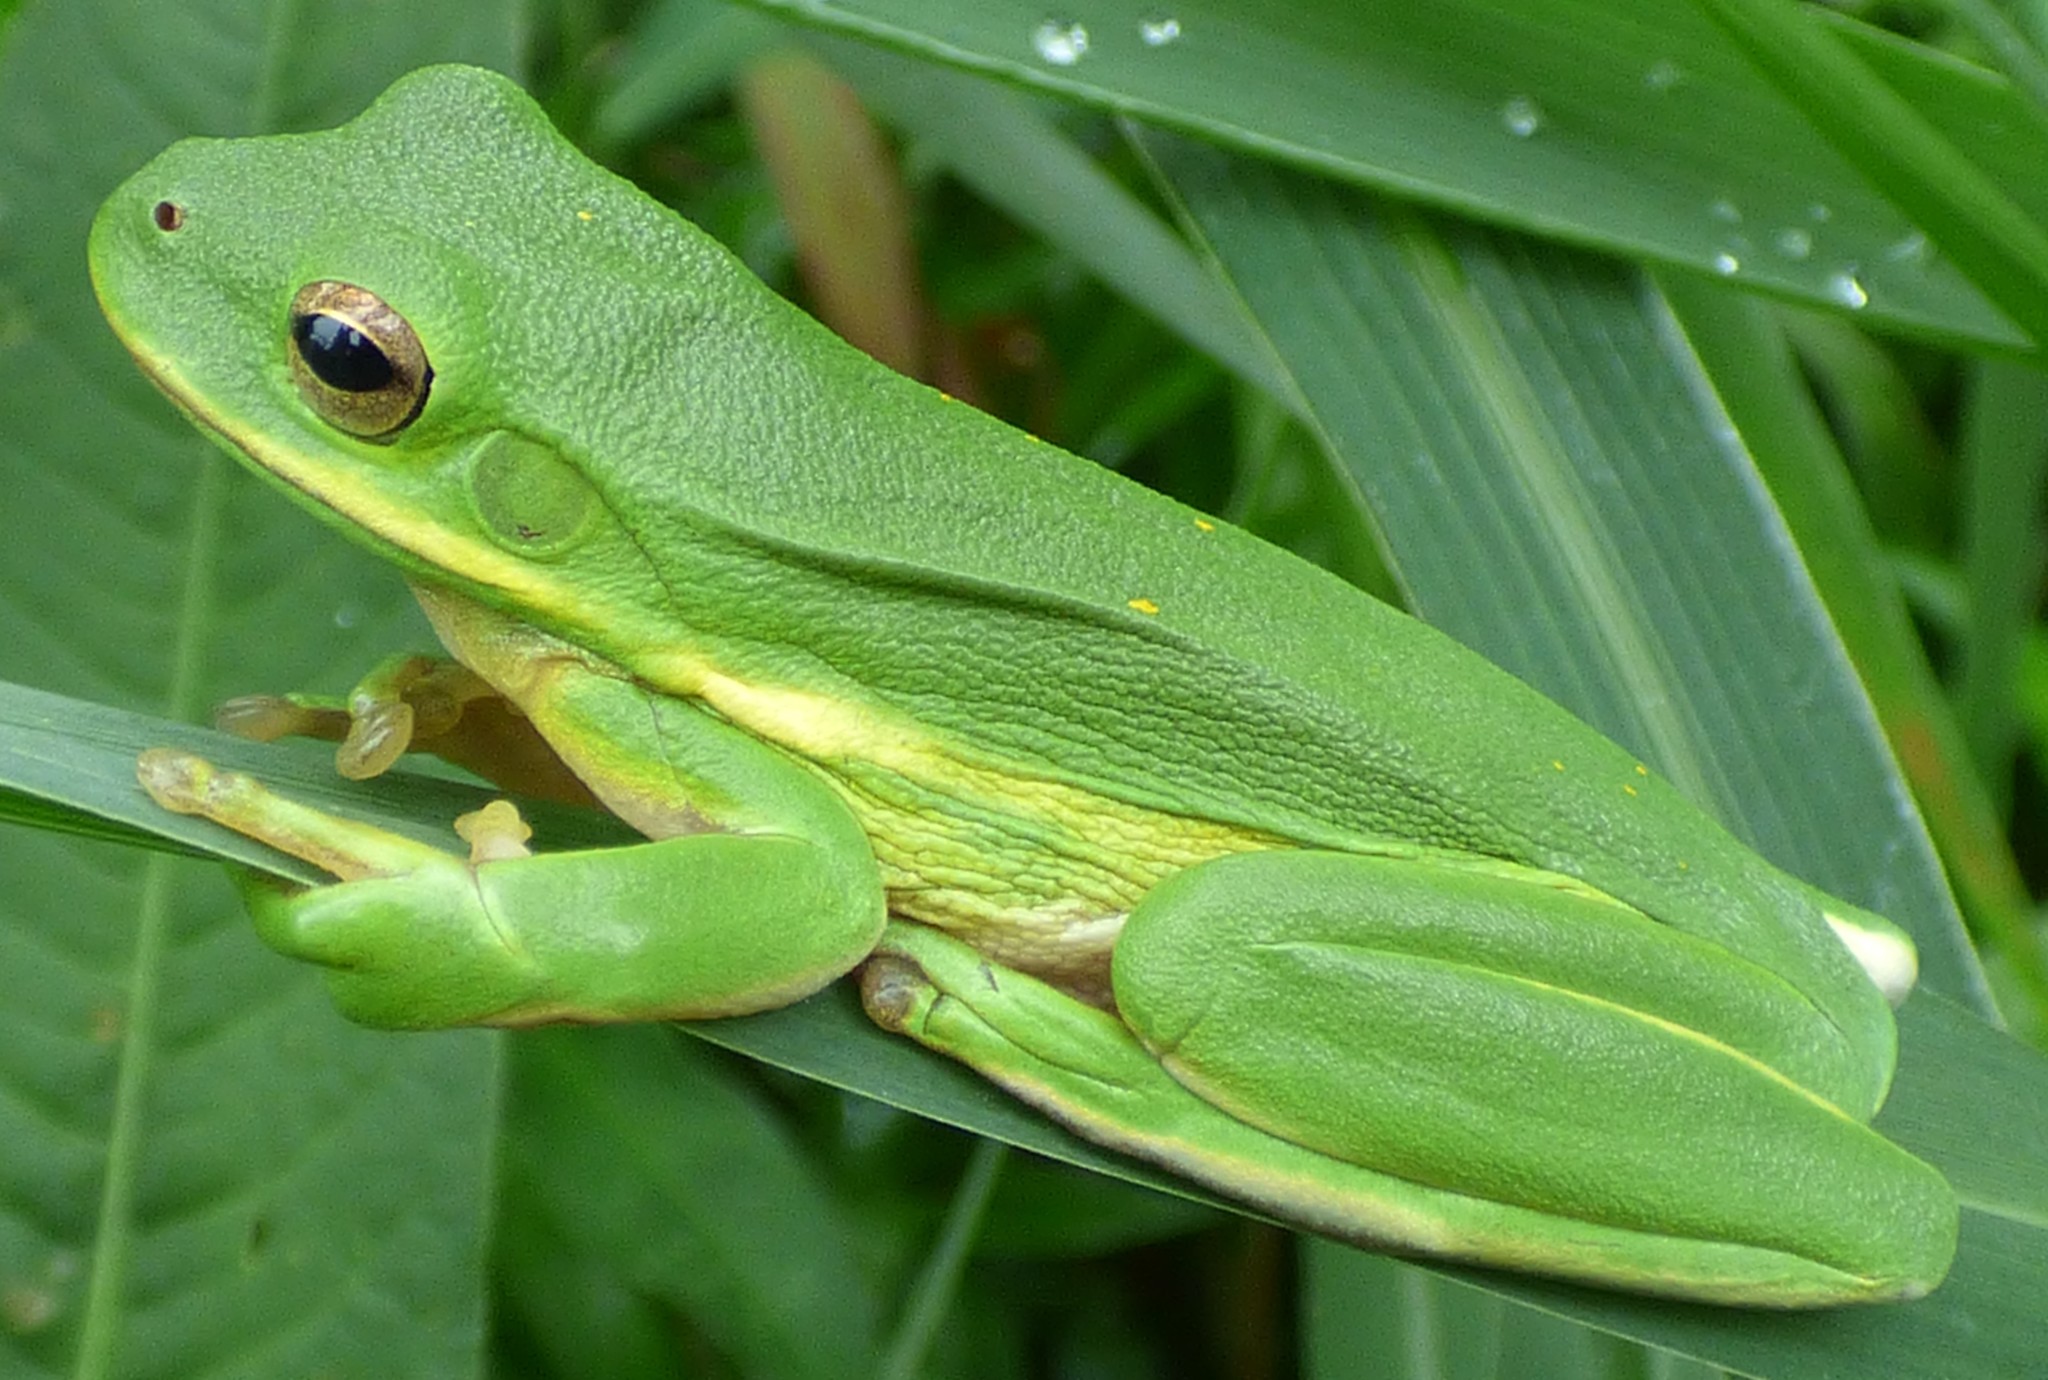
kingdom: Animalia
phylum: Chordata
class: Amphibia
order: Anura
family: Hylidae
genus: Dryophytes
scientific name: Dryophytes cinereus
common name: Green treefrog
